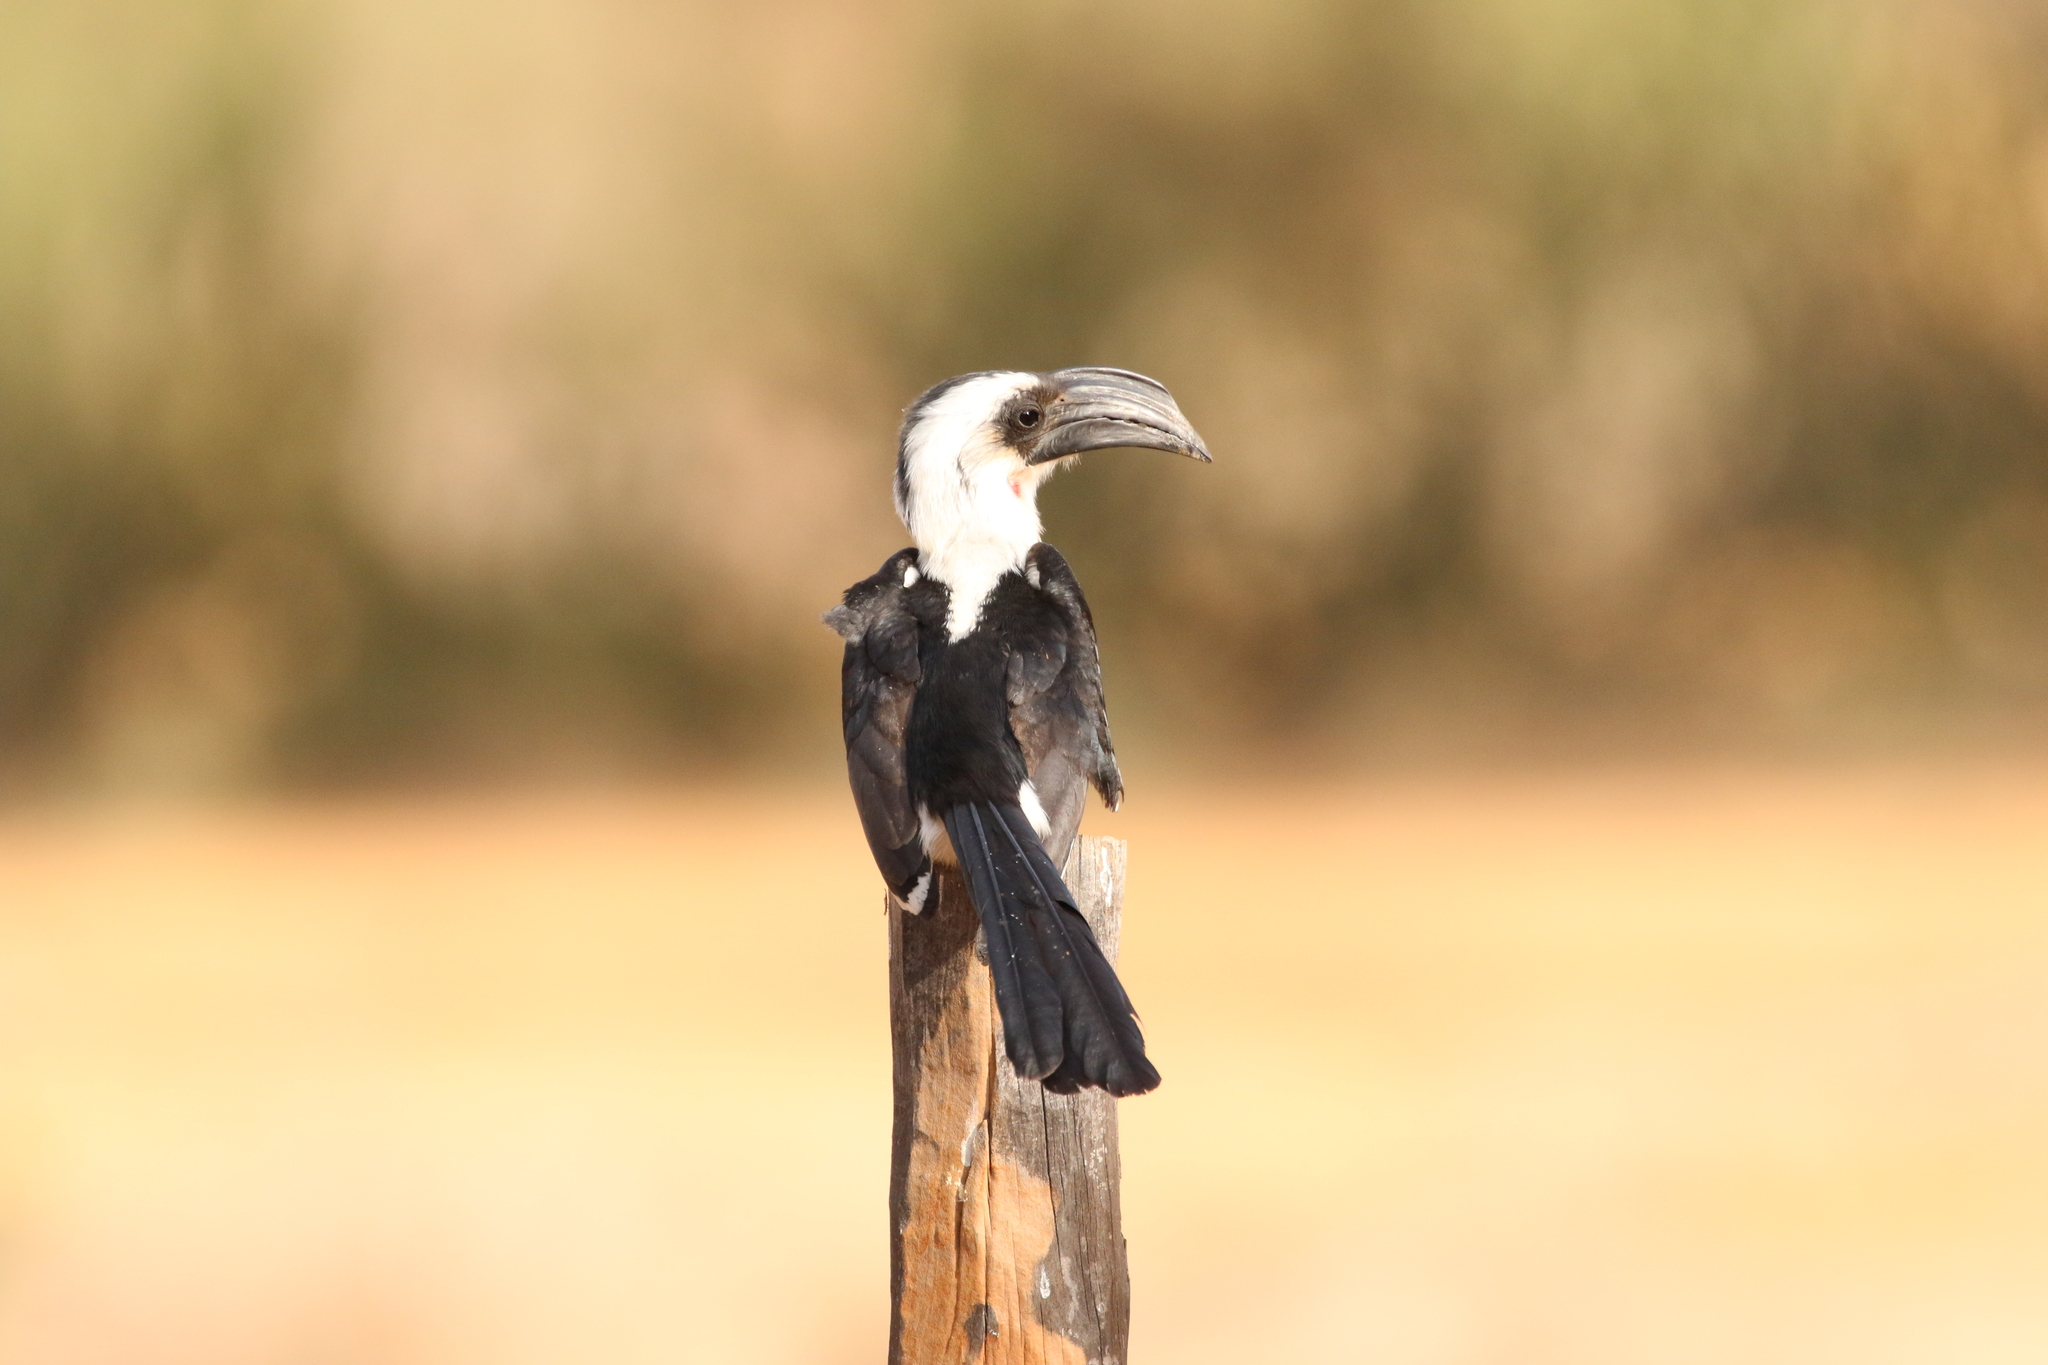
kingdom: Animalia
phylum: Chordata
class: Aves
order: Bucerotiformes
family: Bucerotidae
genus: Tockus
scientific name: Tockus deckeni
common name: Von der decken's hornbill
